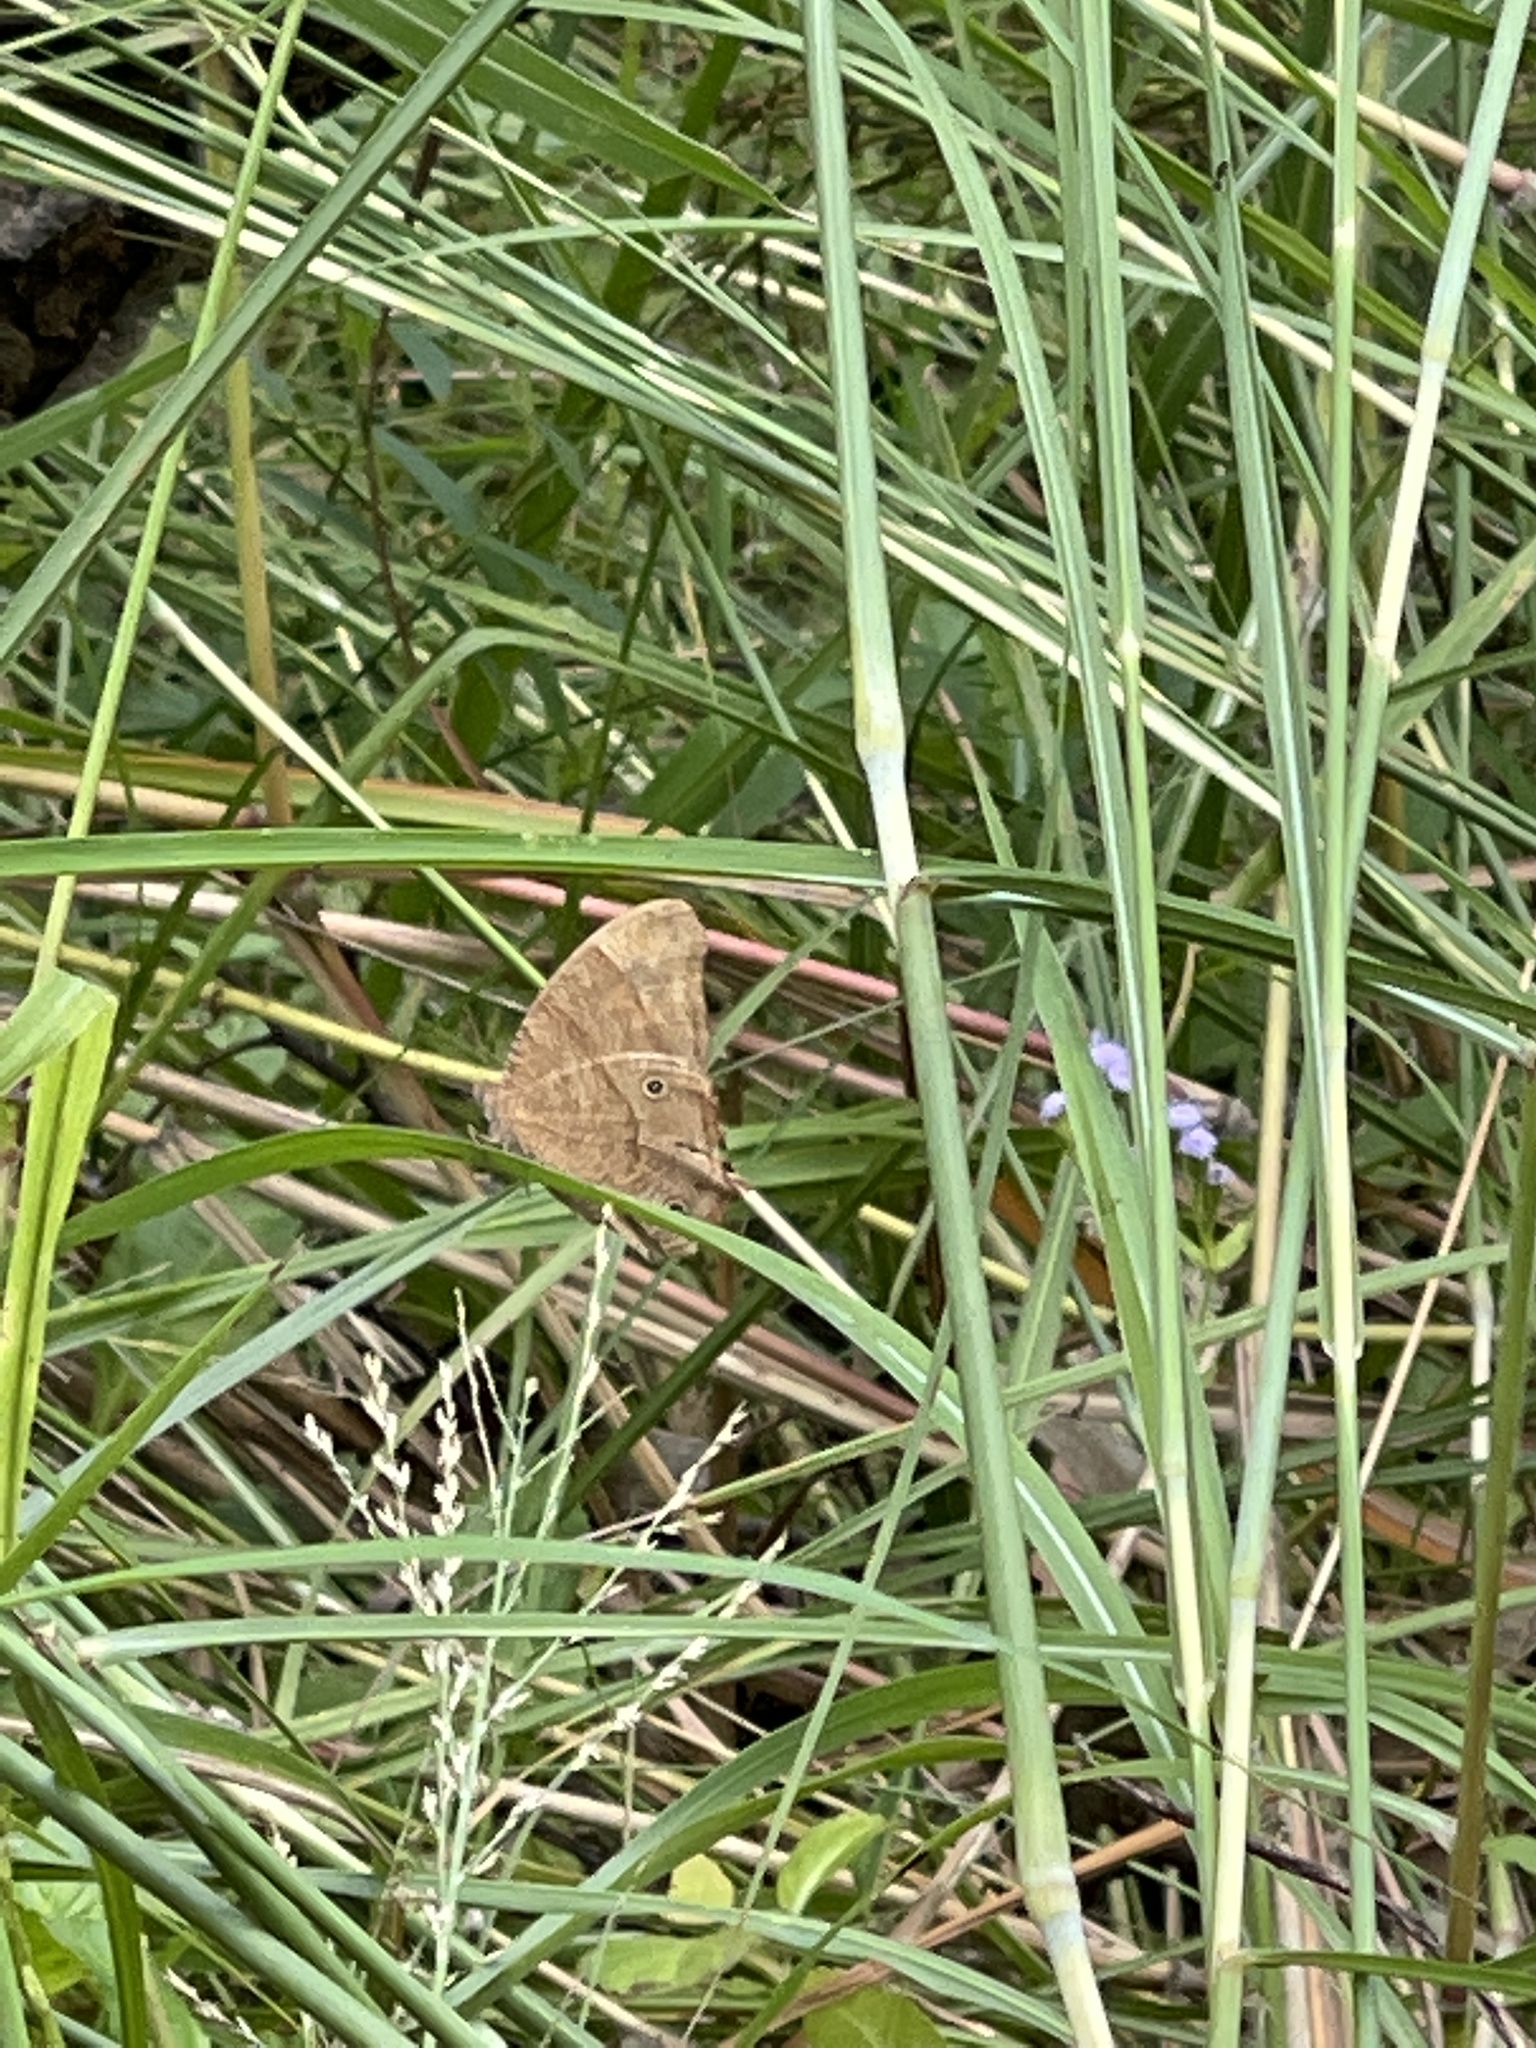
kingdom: Animalia
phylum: Arthropoda
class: Insecta
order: Lepidoptera
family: Nymphalidae
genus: Melanitis
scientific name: Melanitis leda
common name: Twilight brown
